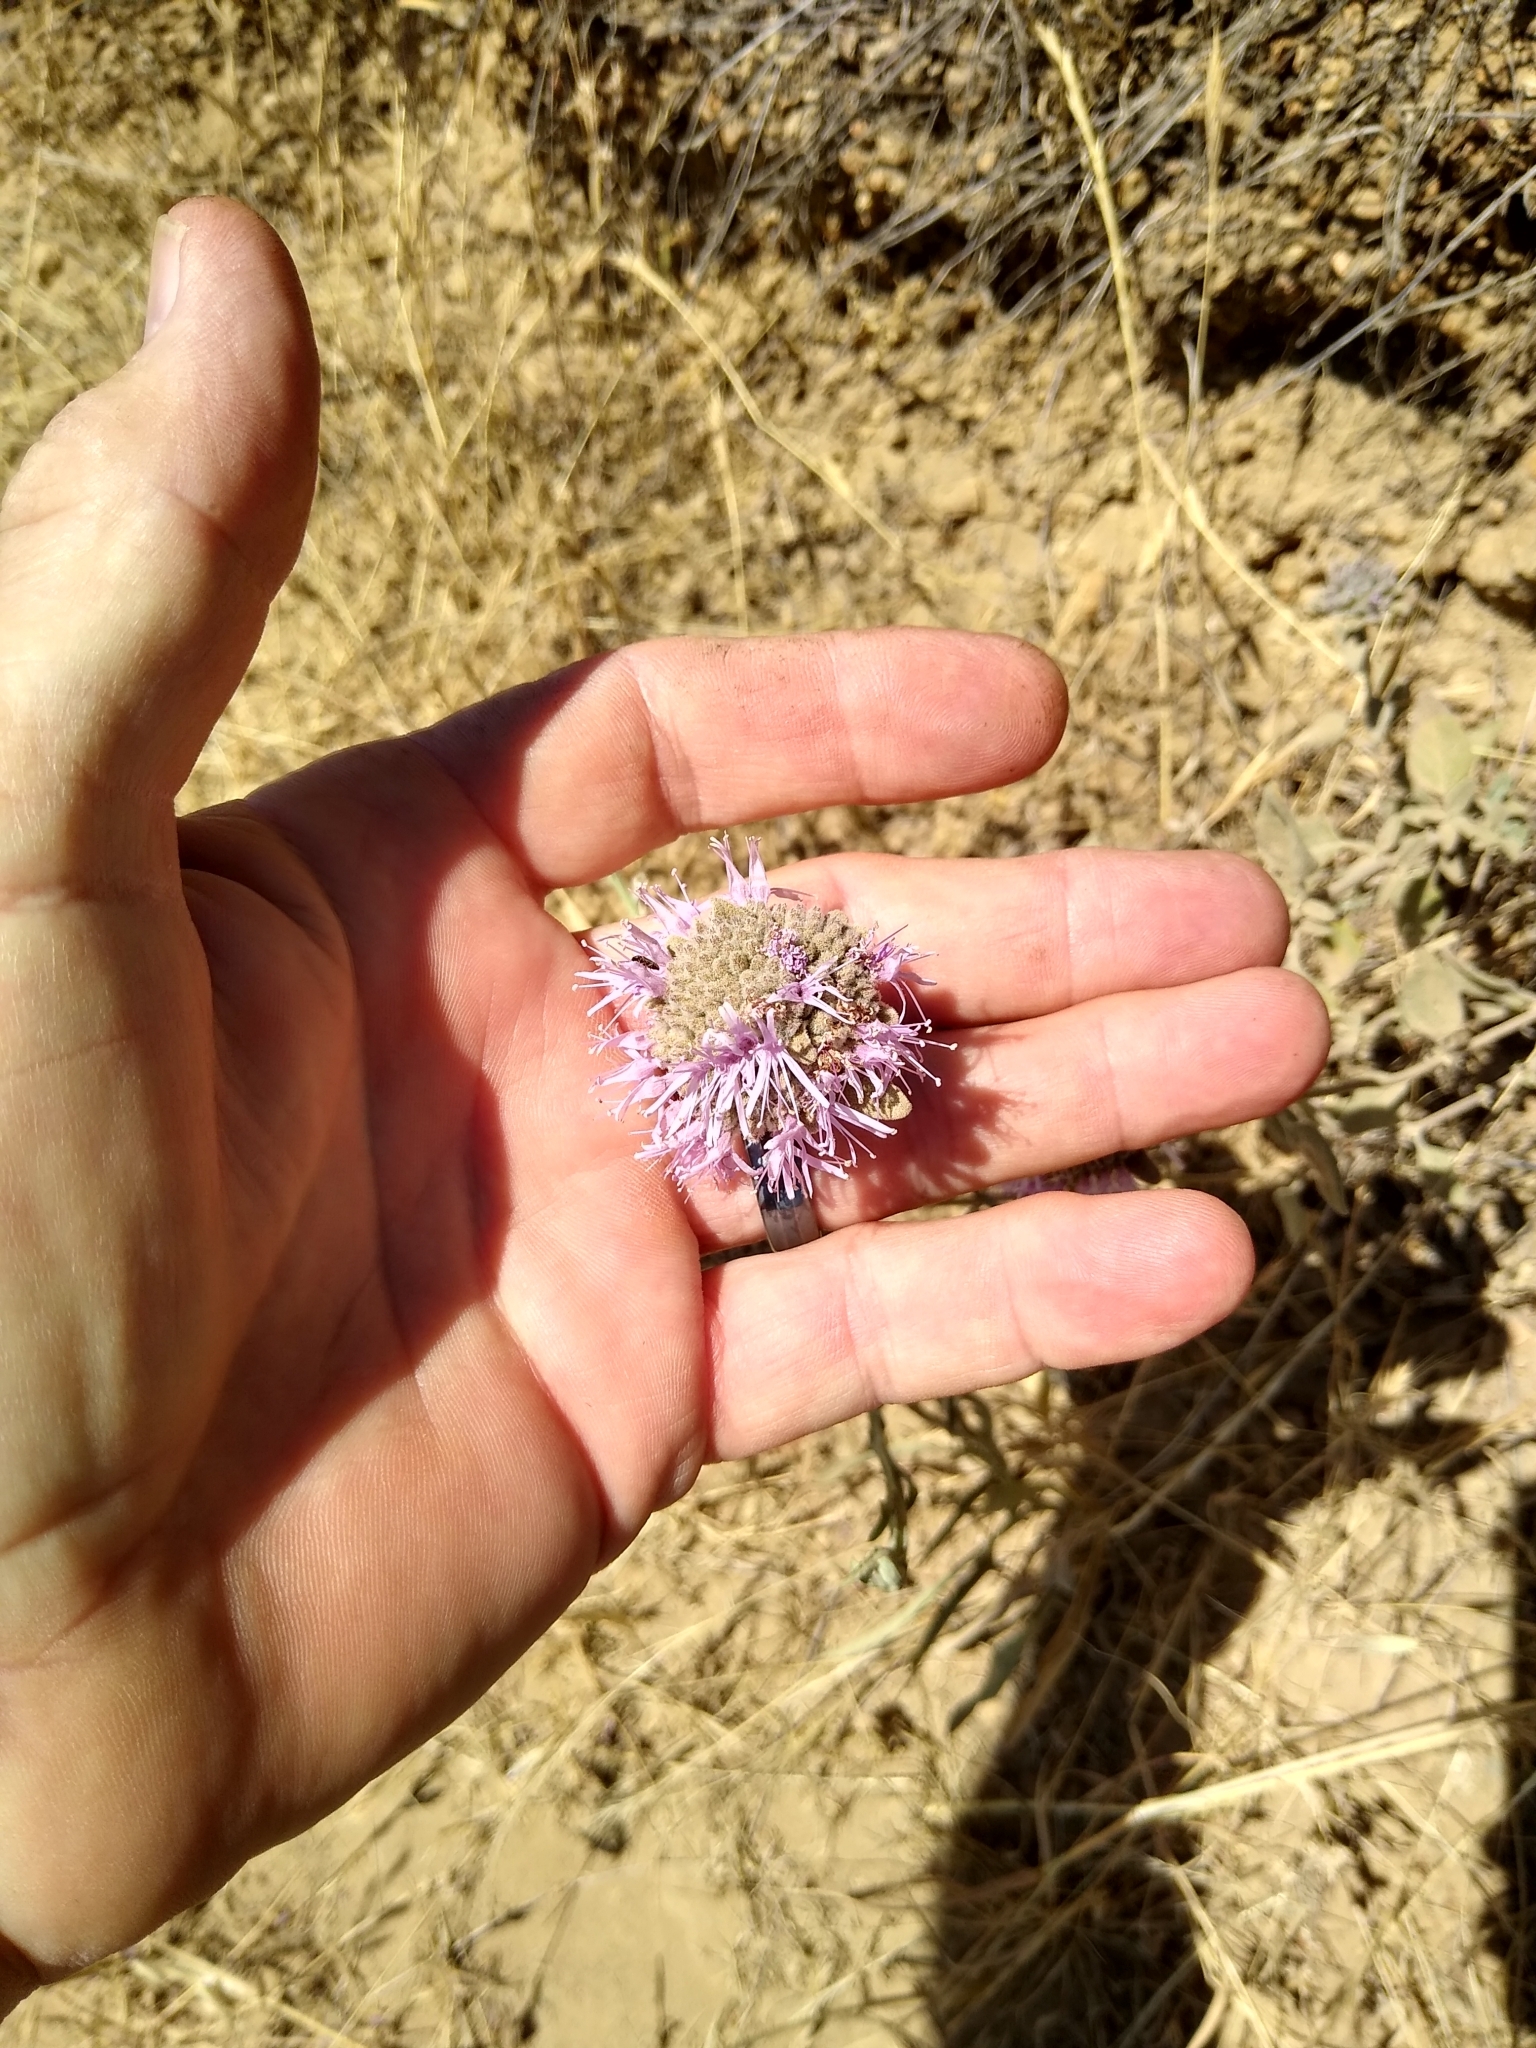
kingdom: Plantae
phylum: Tracheophyta
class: Magnoliopsida
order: Lamiales
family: Lamiaceae
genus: Monardella
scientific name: Monardella odoratissima
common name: Pacific monardella
